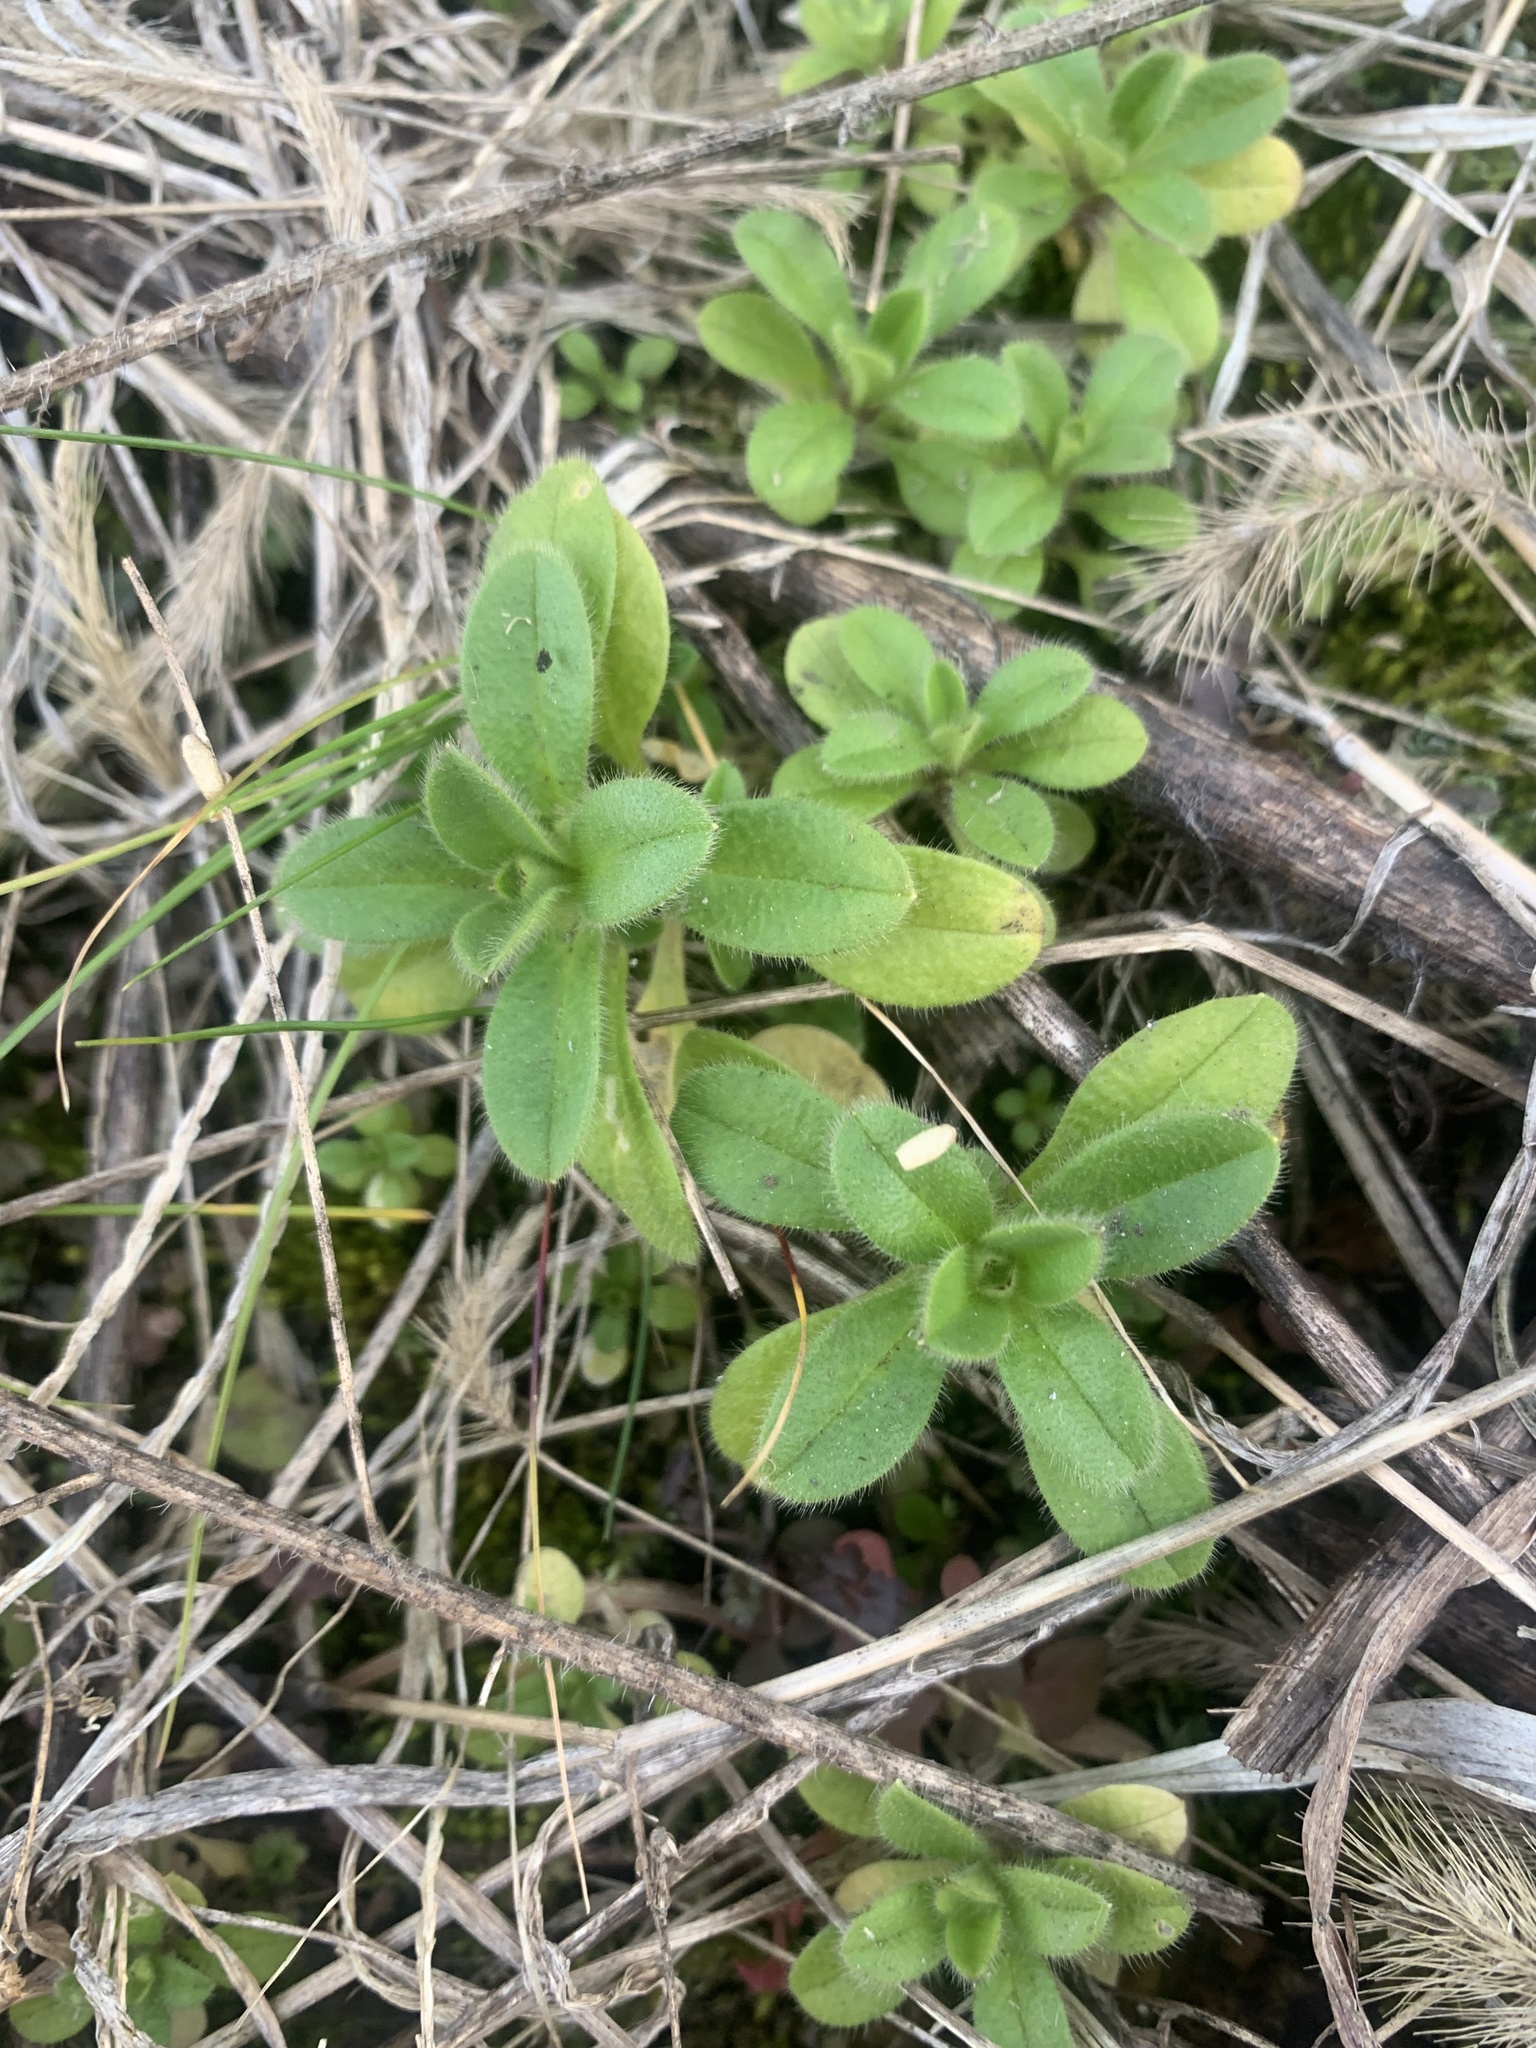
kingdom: Plantae
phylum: Tracheophyta
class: Magnoliopsida
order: Caryophyllales
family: Caryophyllaceae
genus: Cerastium
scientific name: Cerastium glomeratum
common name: Sticky chickweed
